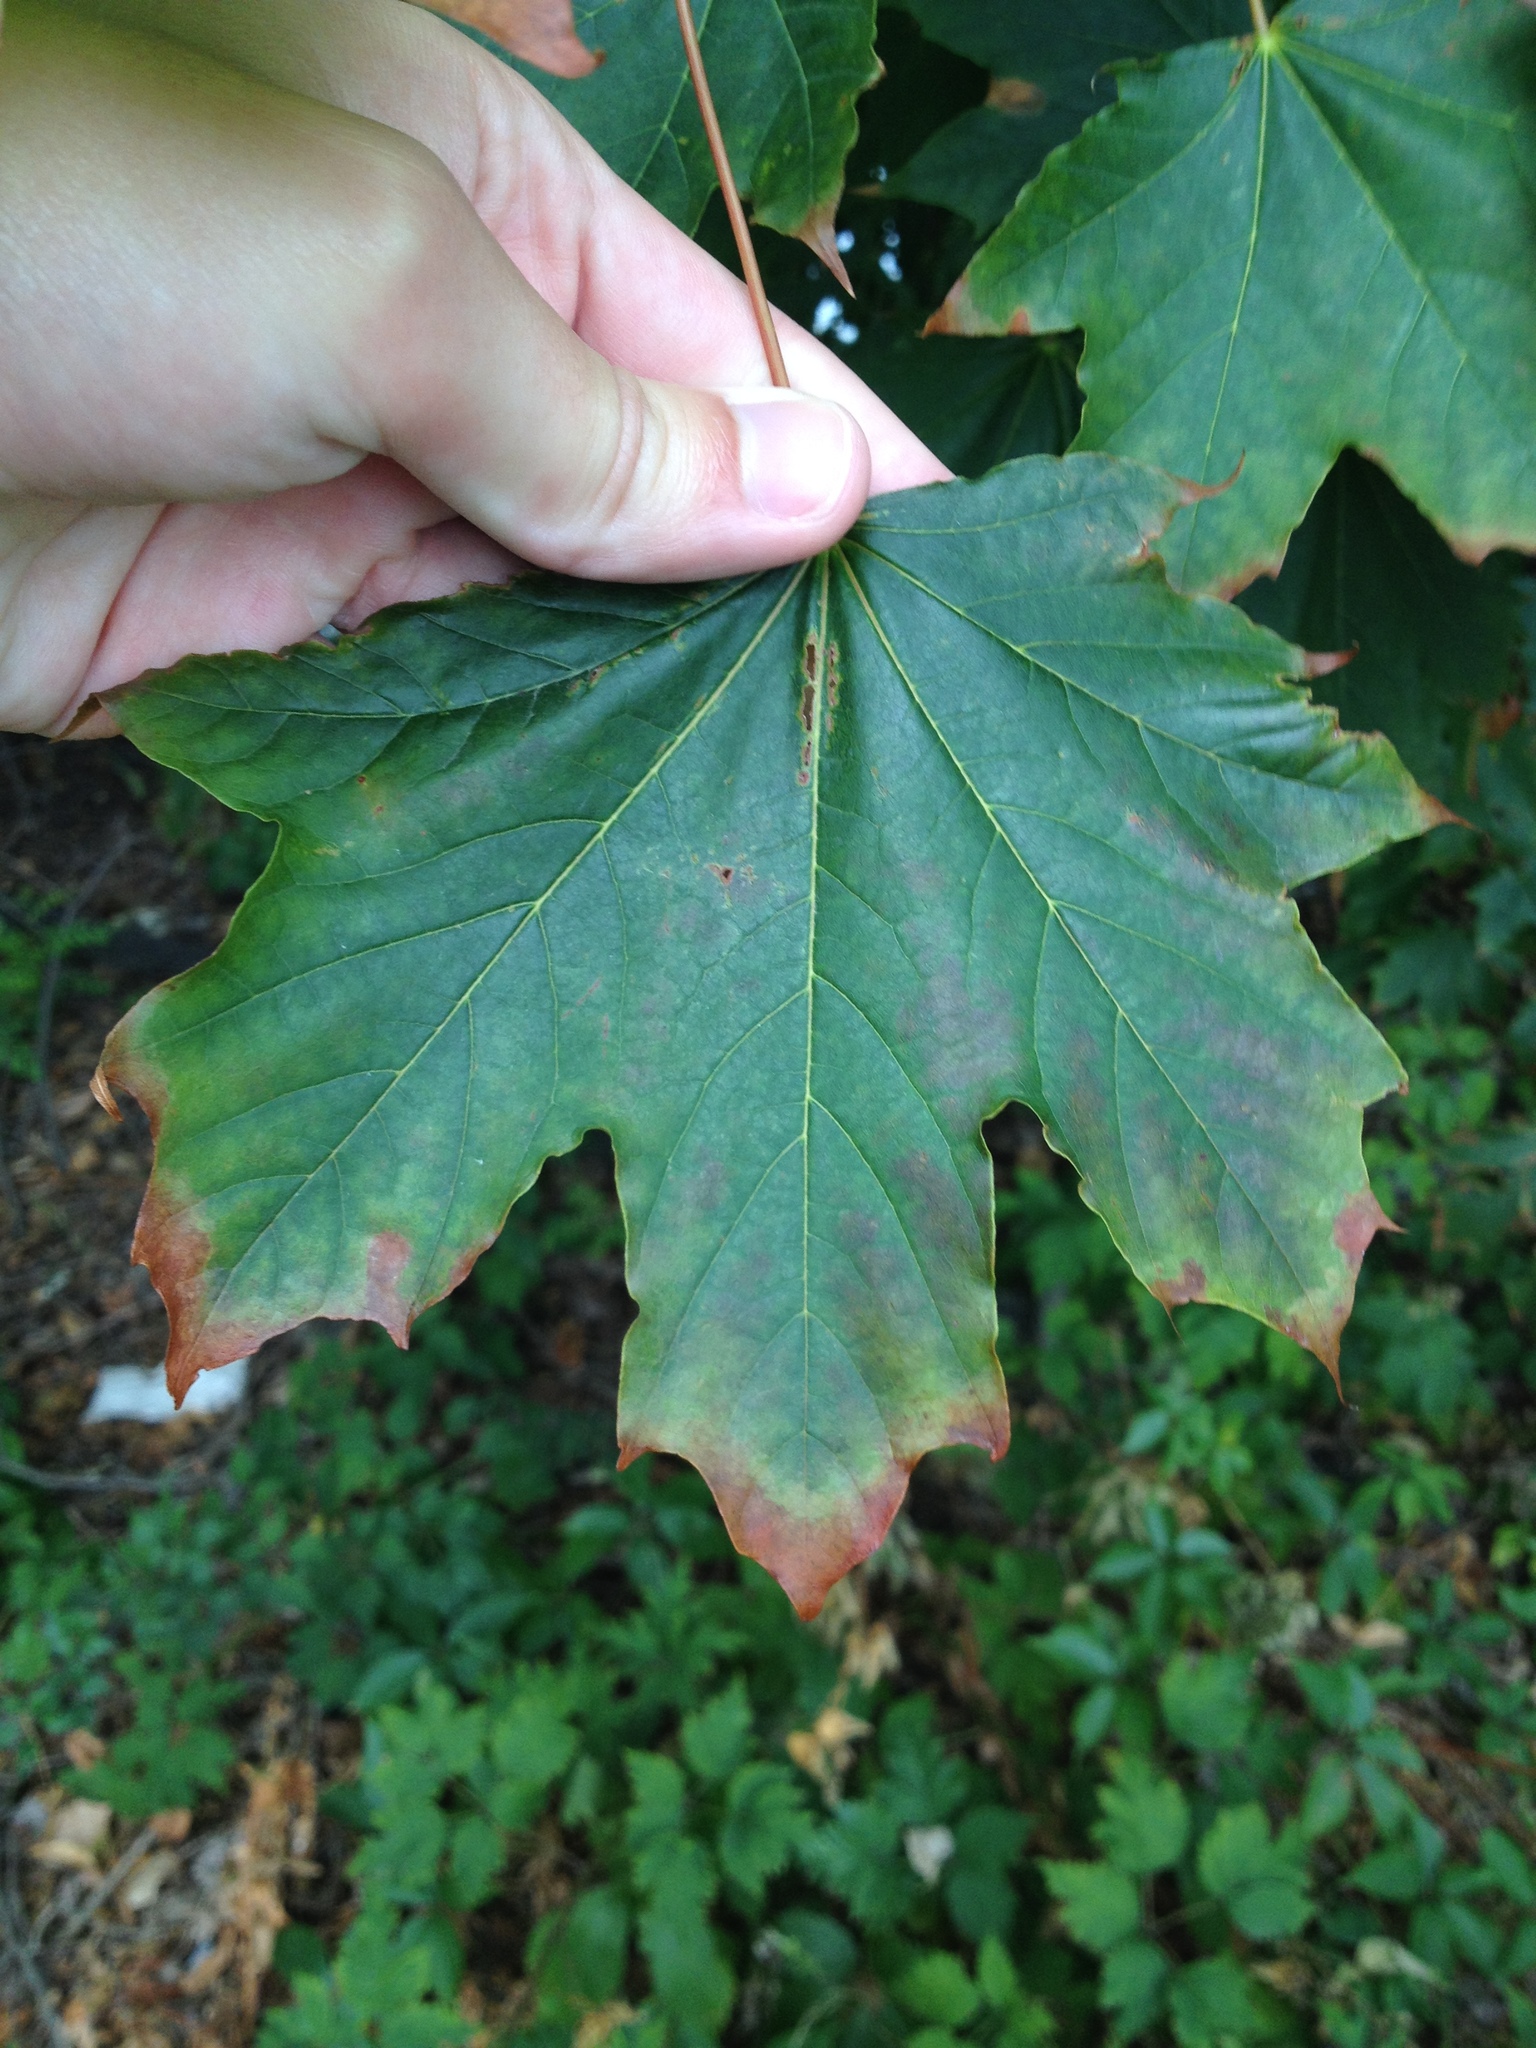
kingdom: Plantae
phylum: Tracheophyta
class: Magnoliopsida
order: Sapindales
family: Sapindaceae
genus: Acer
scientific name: Acer platanoides
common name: Norway maple
